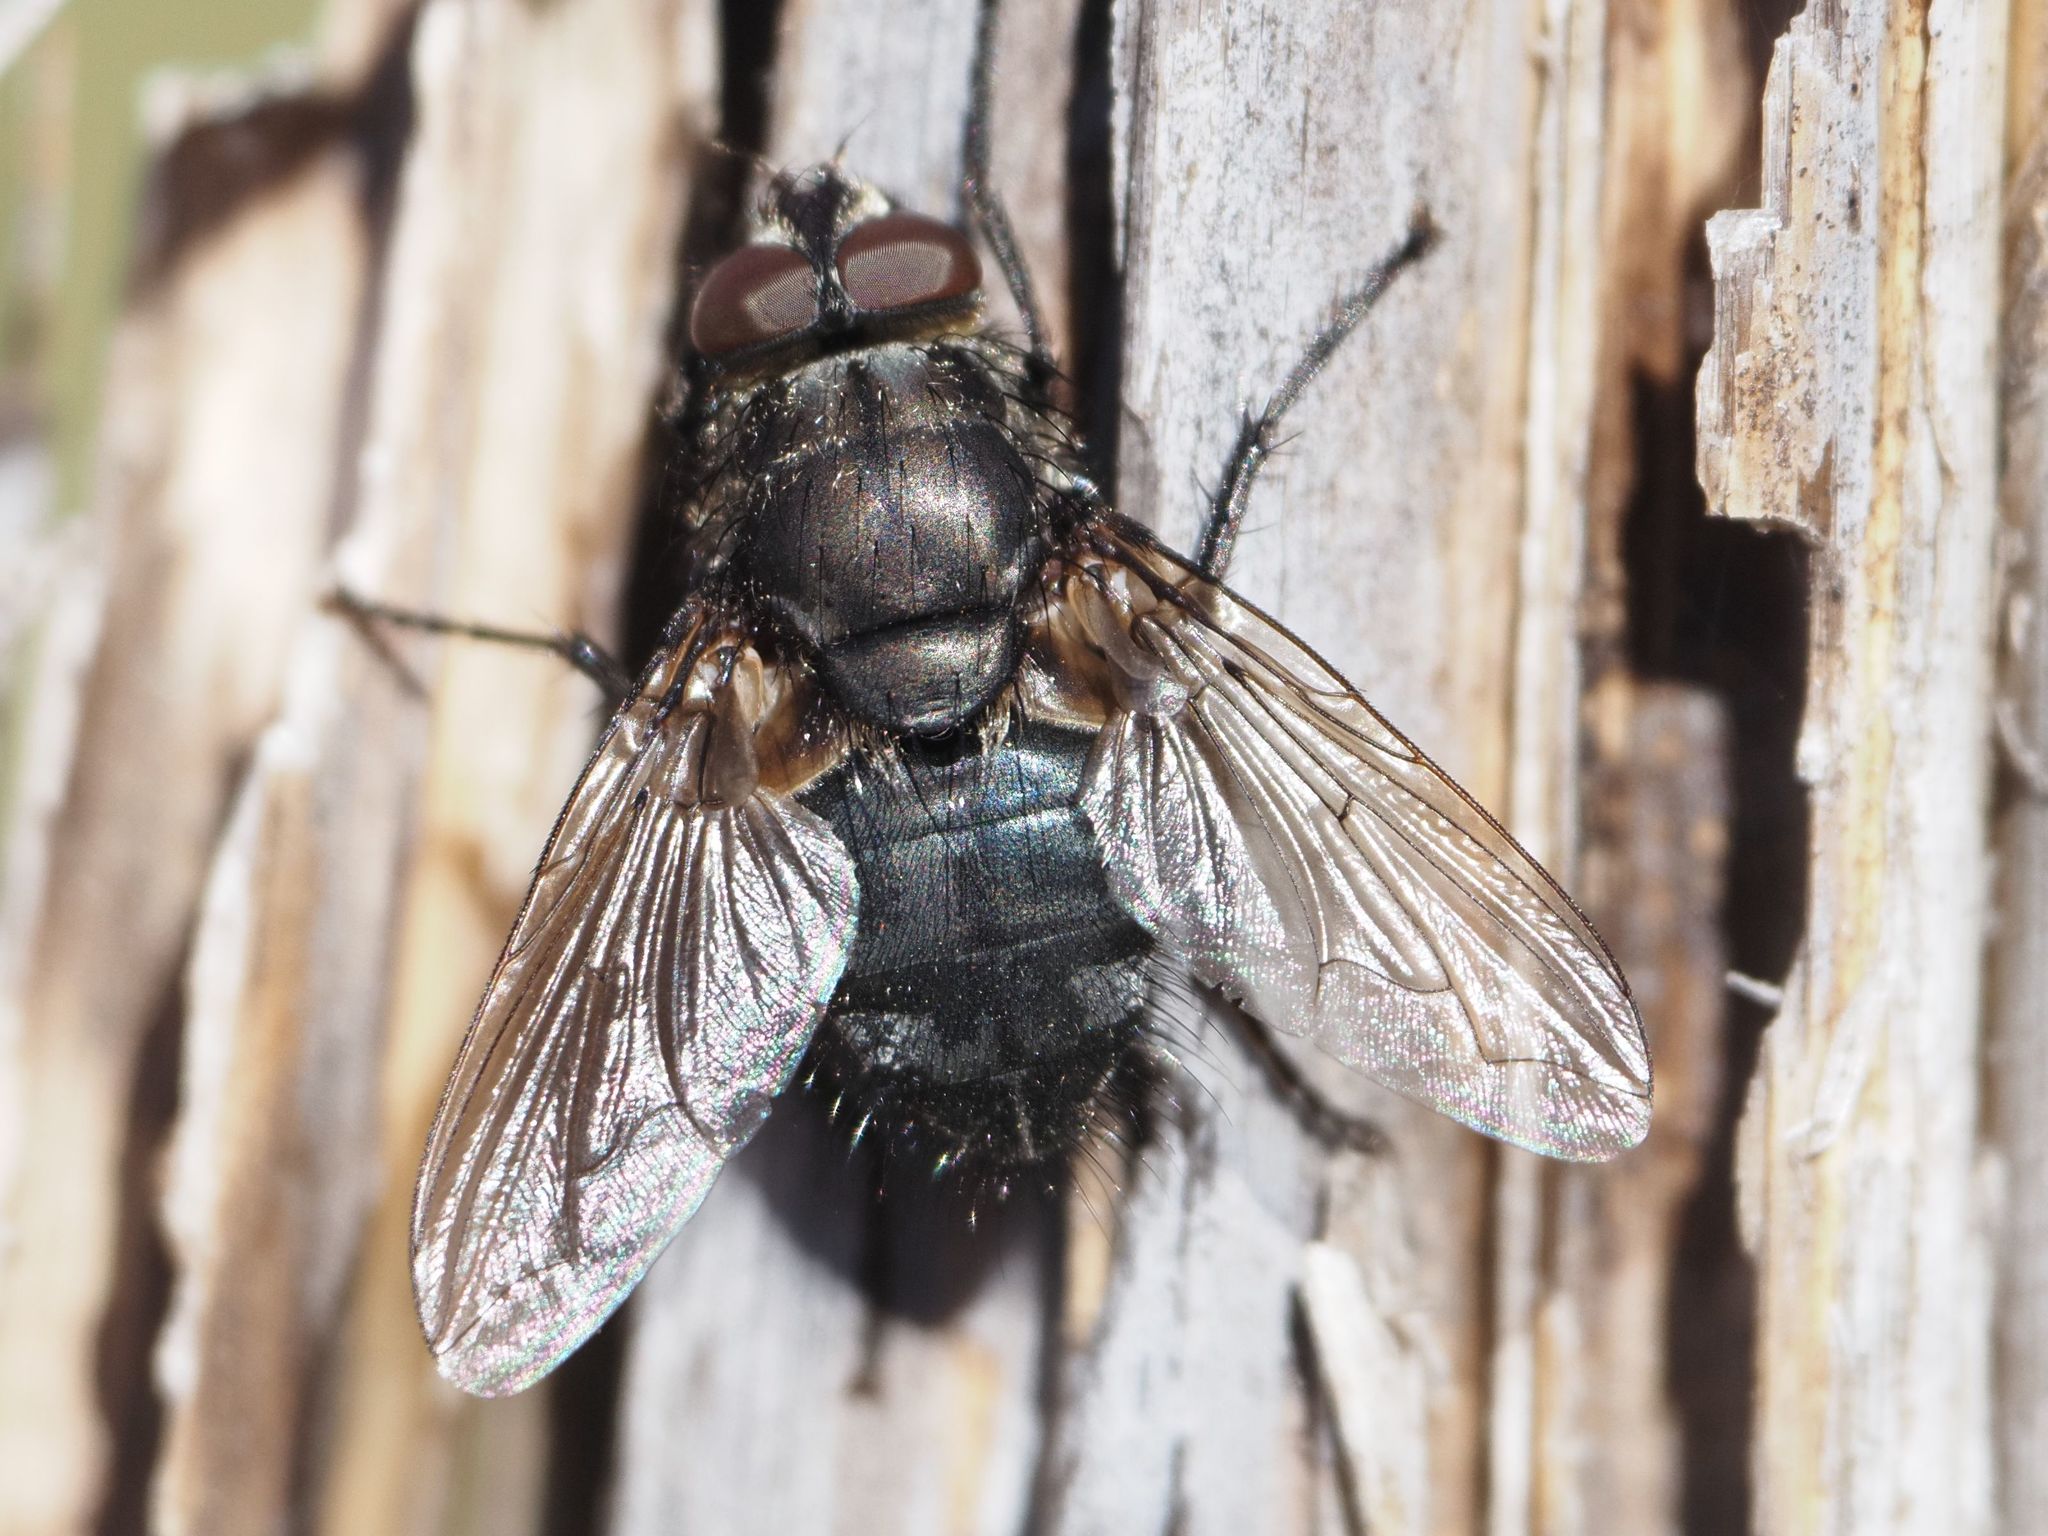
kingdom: Animalia
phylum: Arthropoda
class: Insecta
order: Diptera
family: Polleniidae
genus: Pollenia
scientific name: Pollenia vagabunda
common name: Vagabund cluster fly
